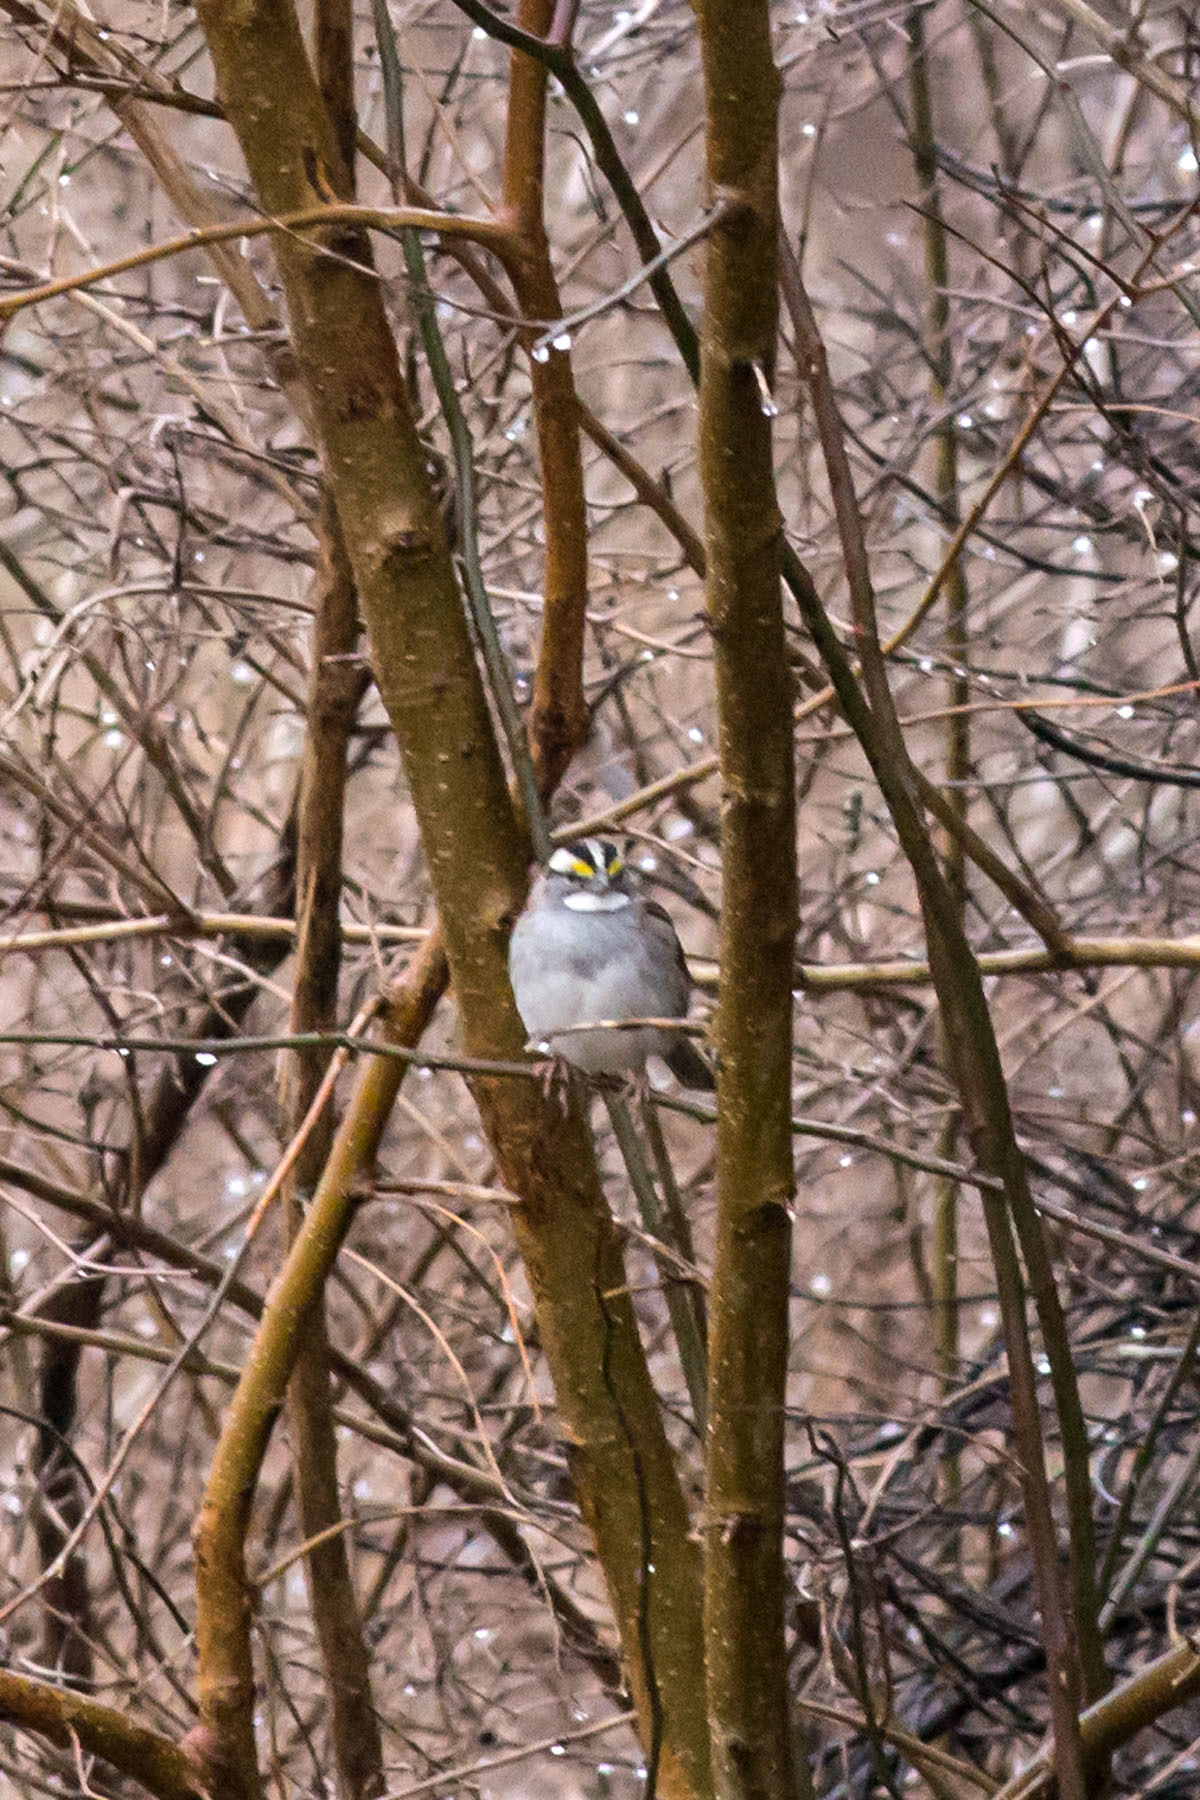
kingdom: Animalia
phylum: Chordata
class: Aves
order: Passeriformes
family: Passerellidae
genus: Zonotrichia
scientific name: Zonotrichia albicollis
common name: White-throated sparrow
